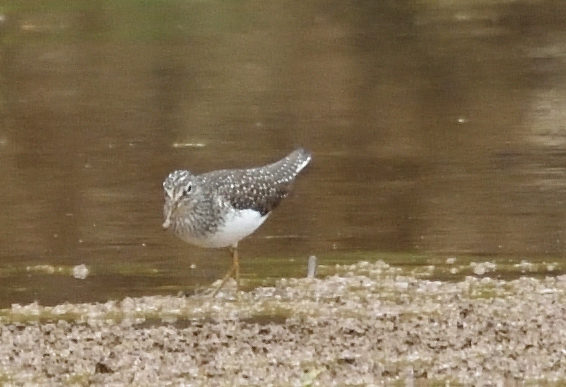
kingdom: Animalia
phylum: Chordata
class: Aves
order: Charadriiformes
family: Scolopacidae
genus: Tringa
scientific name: Tringa solitaria
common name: Solitary sandpiper
